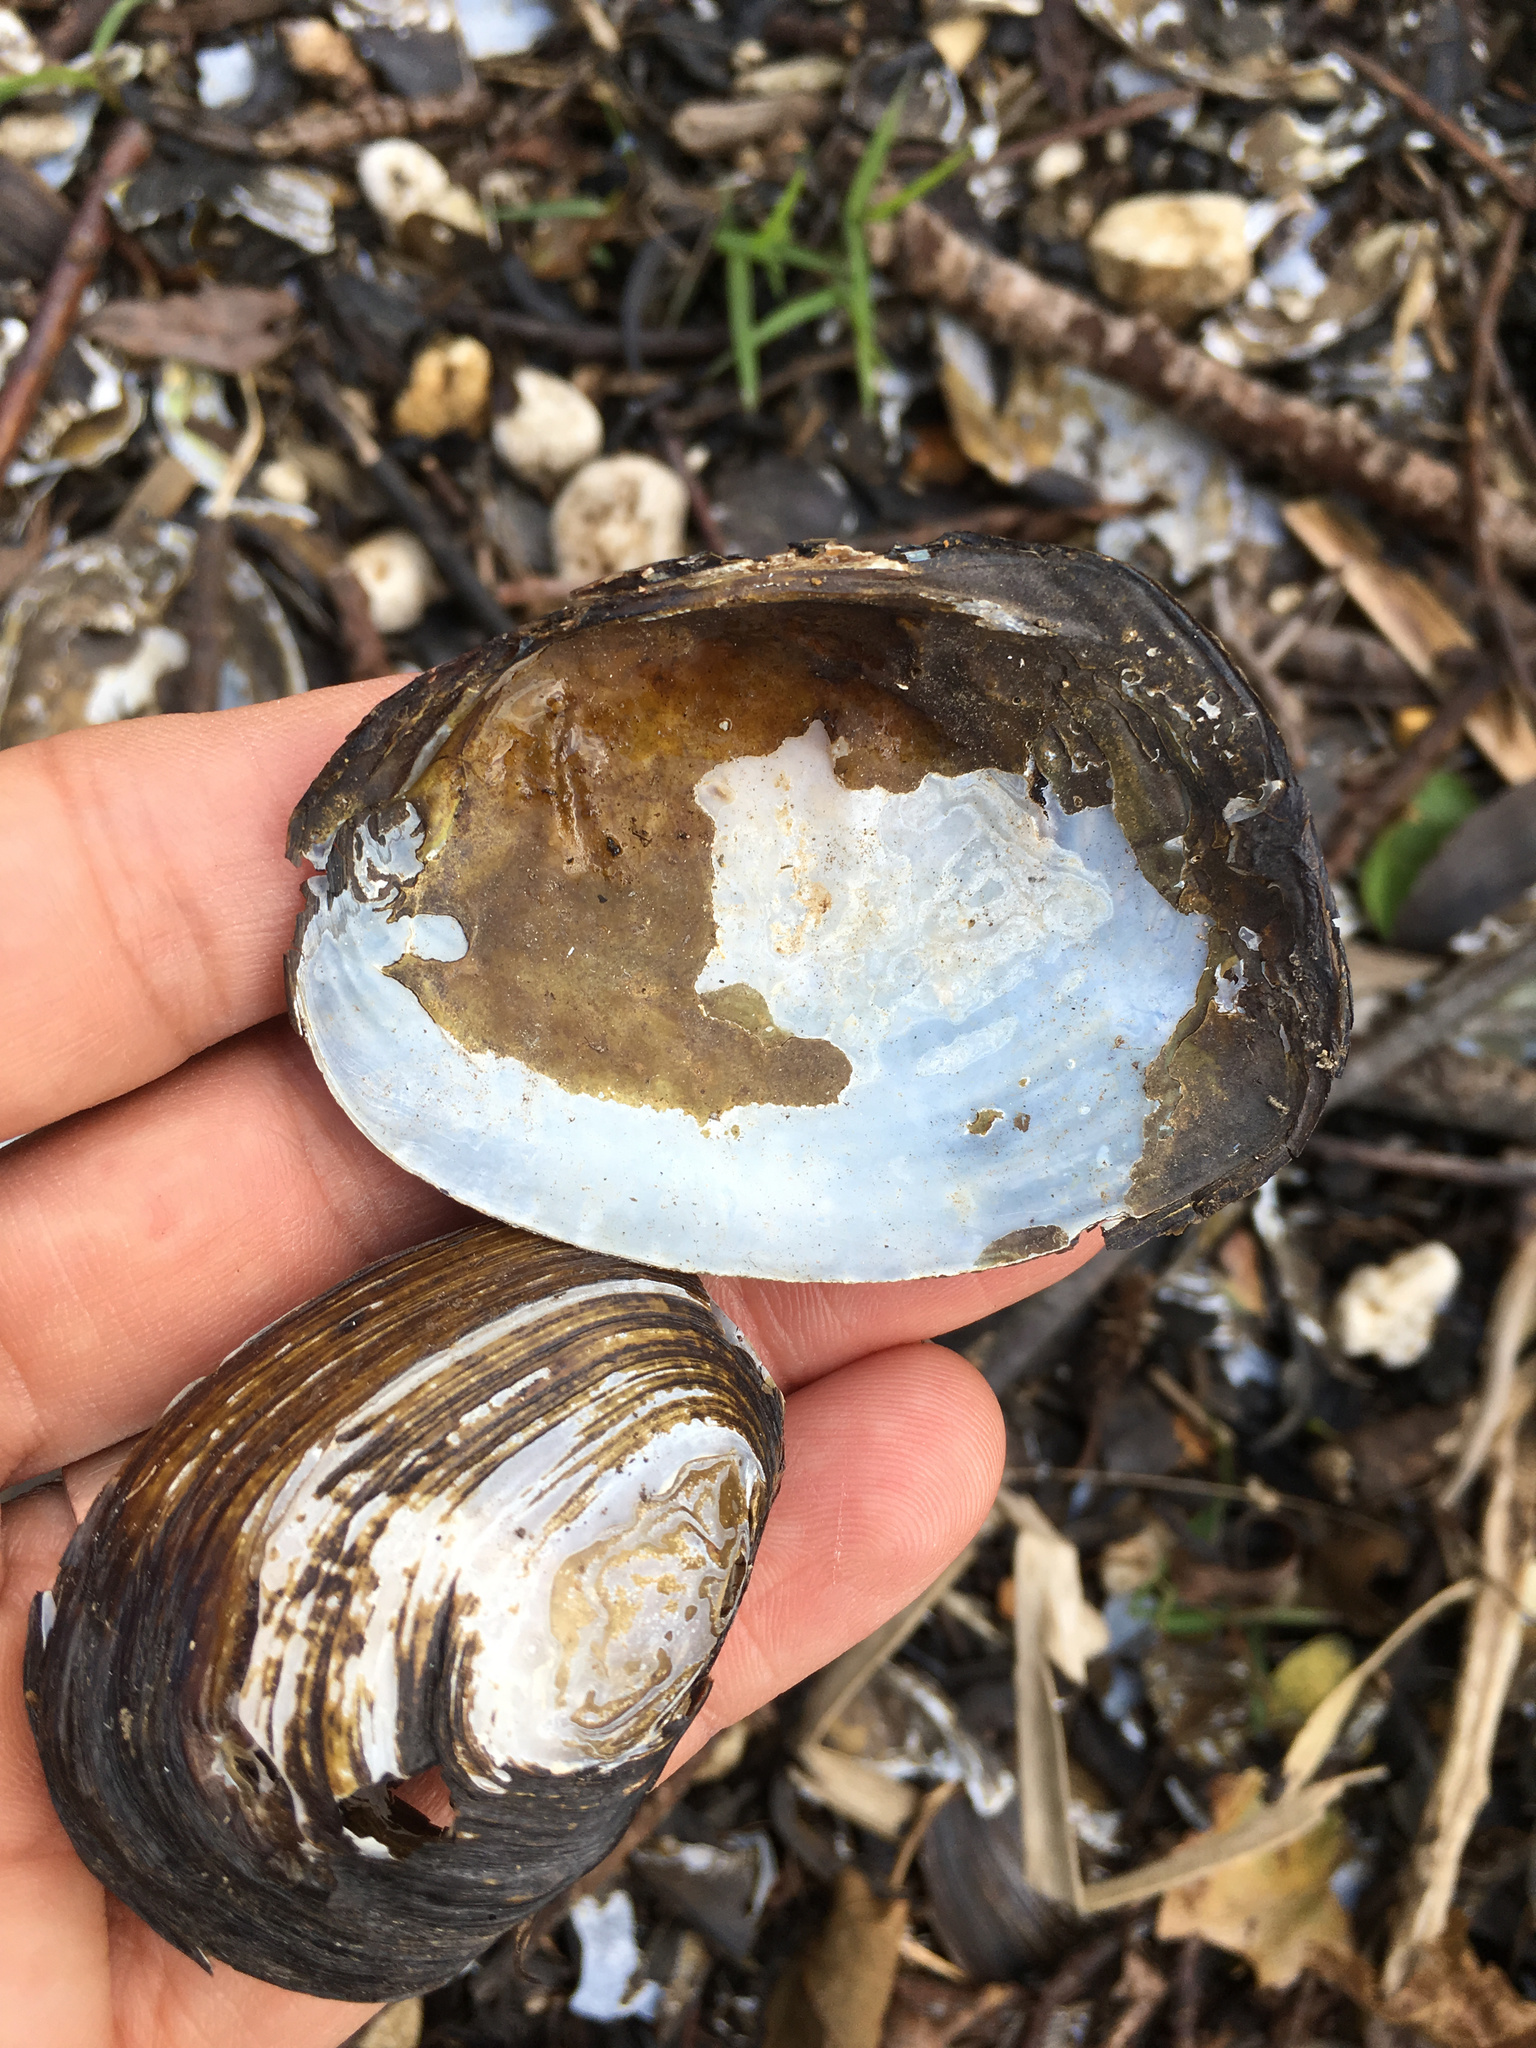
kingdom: Animalia
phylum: Mollusca
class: Bivalvia
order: Unionida
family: Hyriidae
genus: Echyridella
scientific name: Echyridella menziesii
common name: New zealand freshwater mussel
